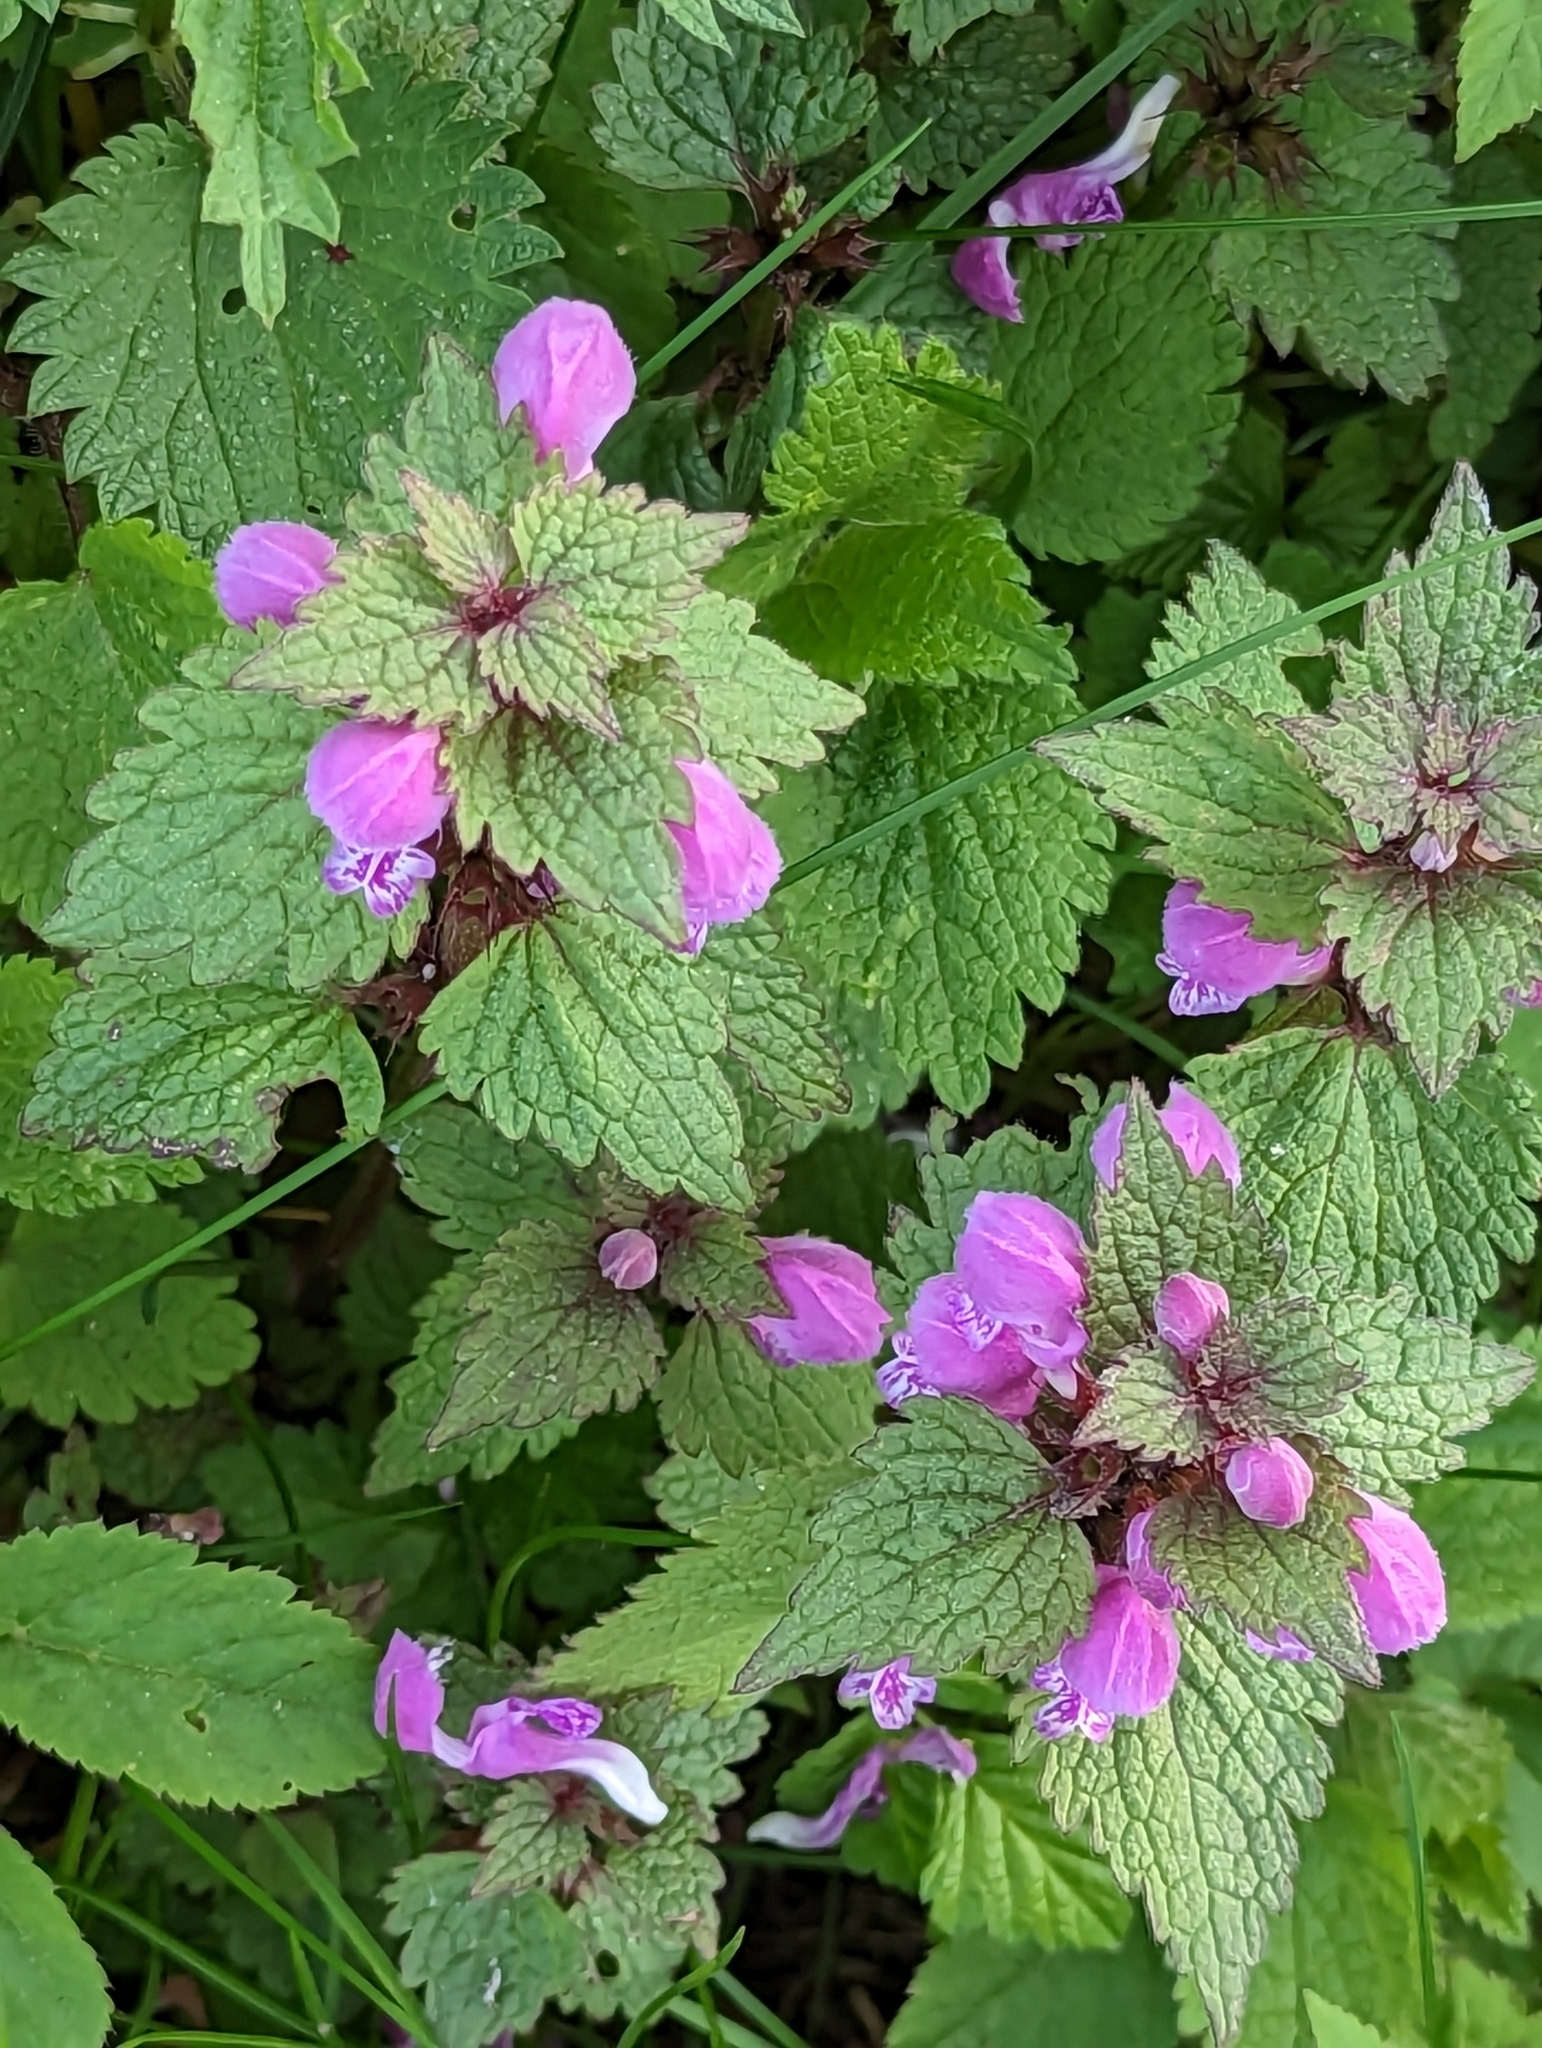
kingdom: Plantae
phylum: Tracheophyta
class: Magnoliopsida
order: Lamiales
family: Lamiaceae
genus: Lamium
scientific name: Lamium maculatum
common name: Spotted dead-nettle
